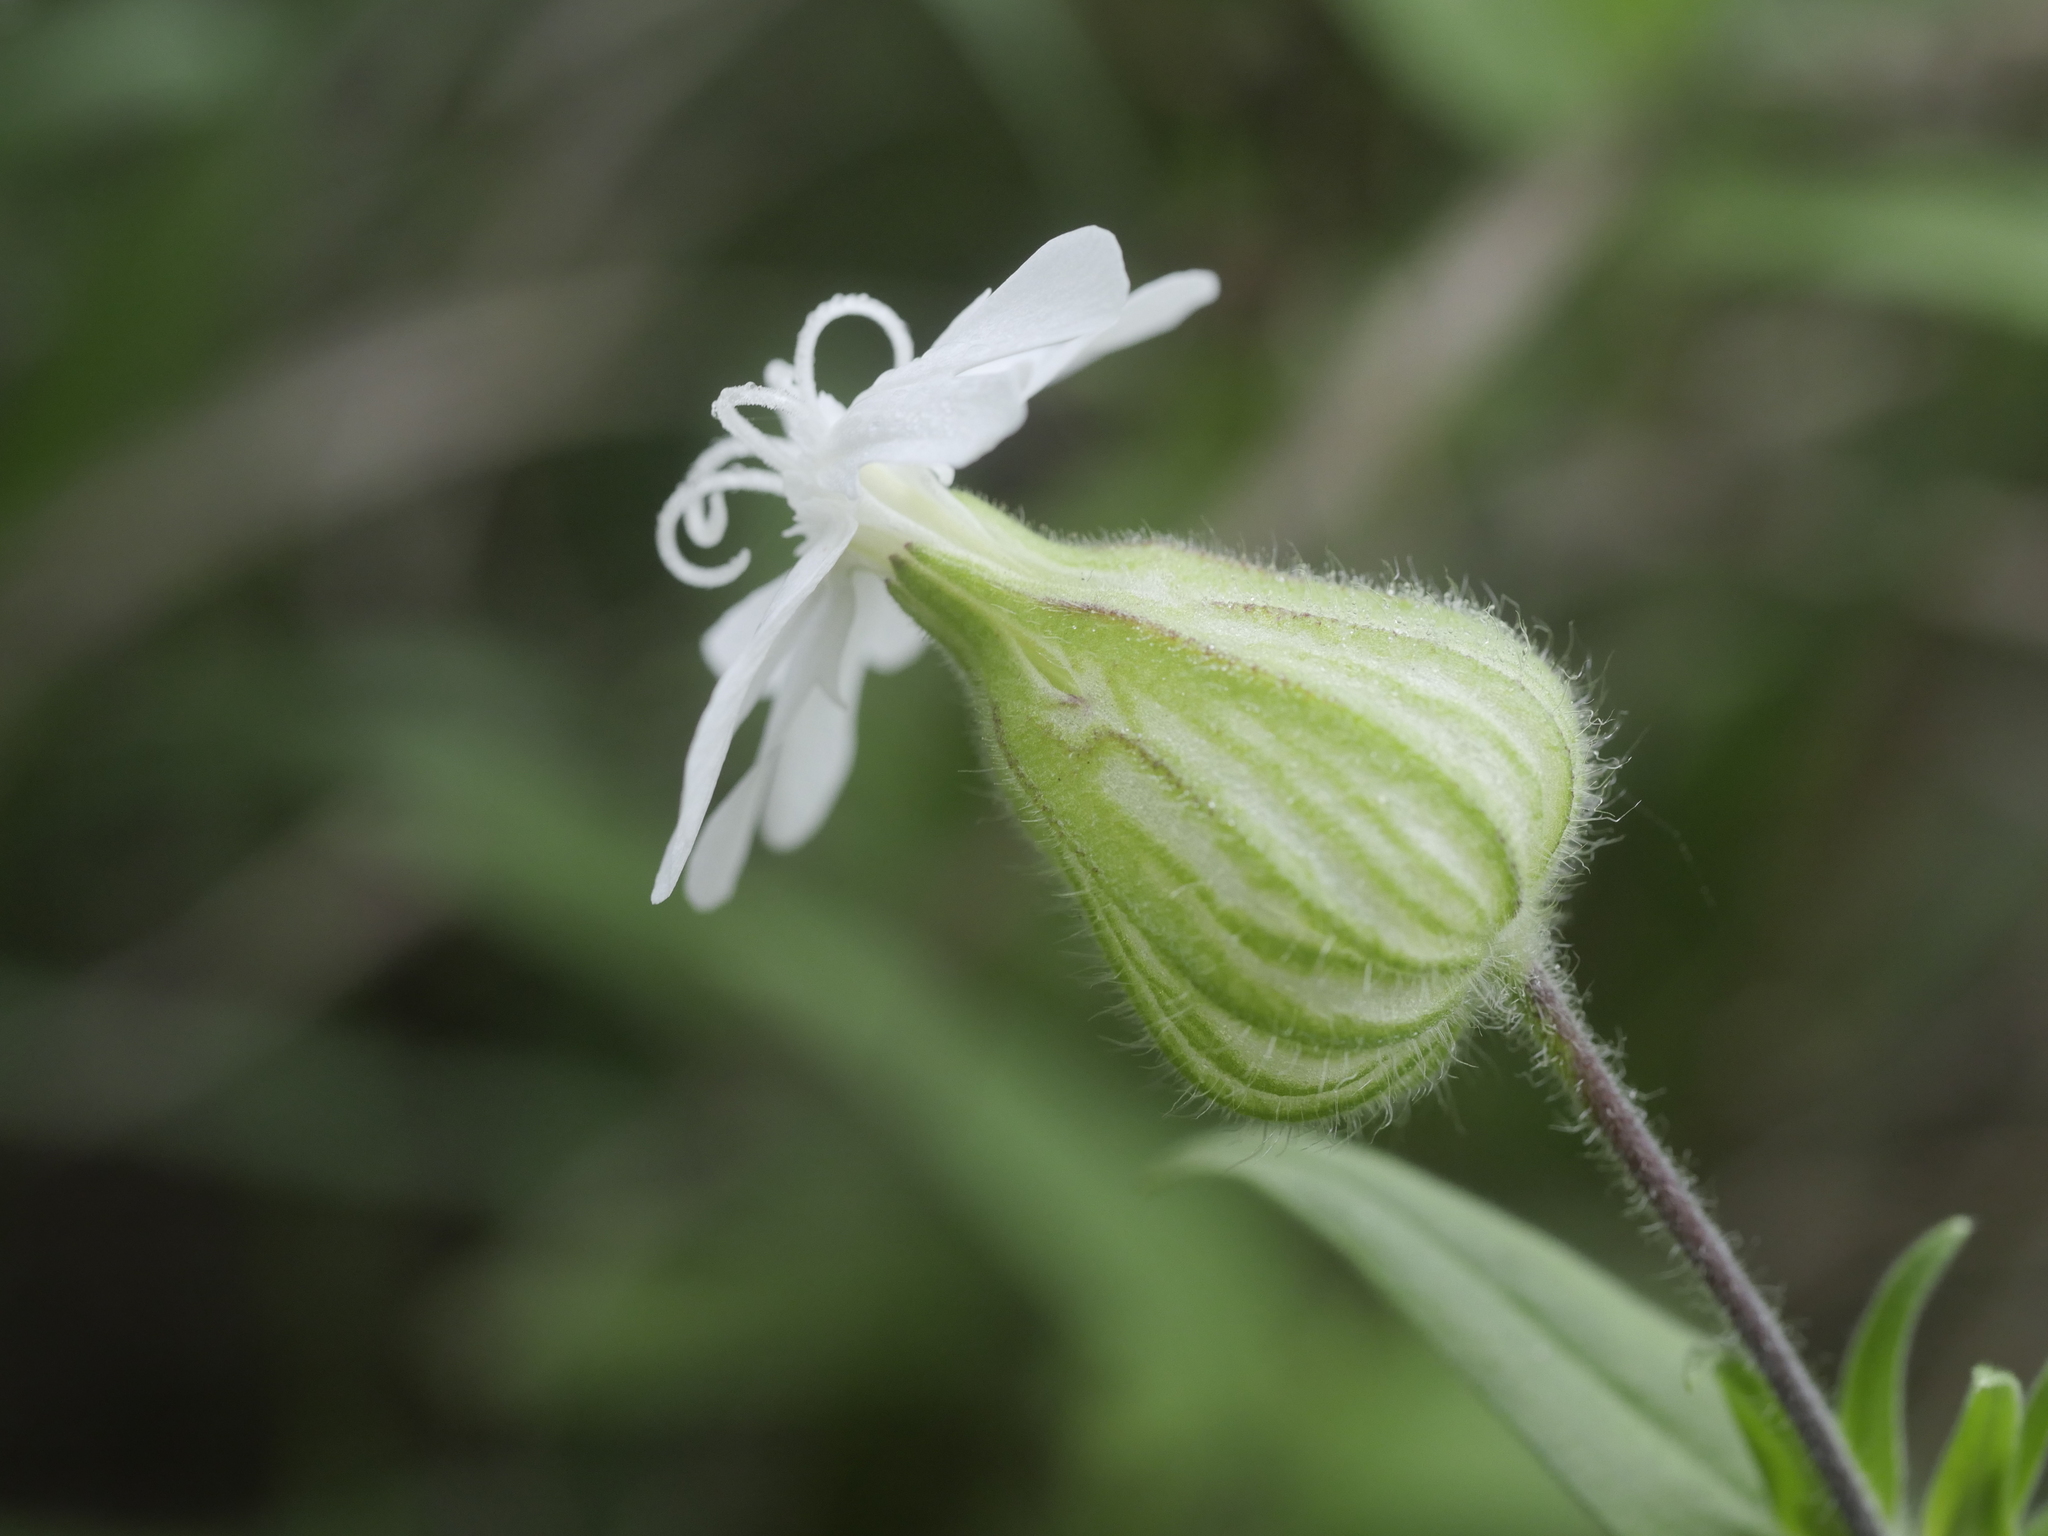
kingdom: Plantae
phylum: Tracheophyta
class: Magnoliopsida
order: Caryophyllales
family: Caryophyllaceae
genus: Silene
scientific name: Silene latifolia
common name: White campion
